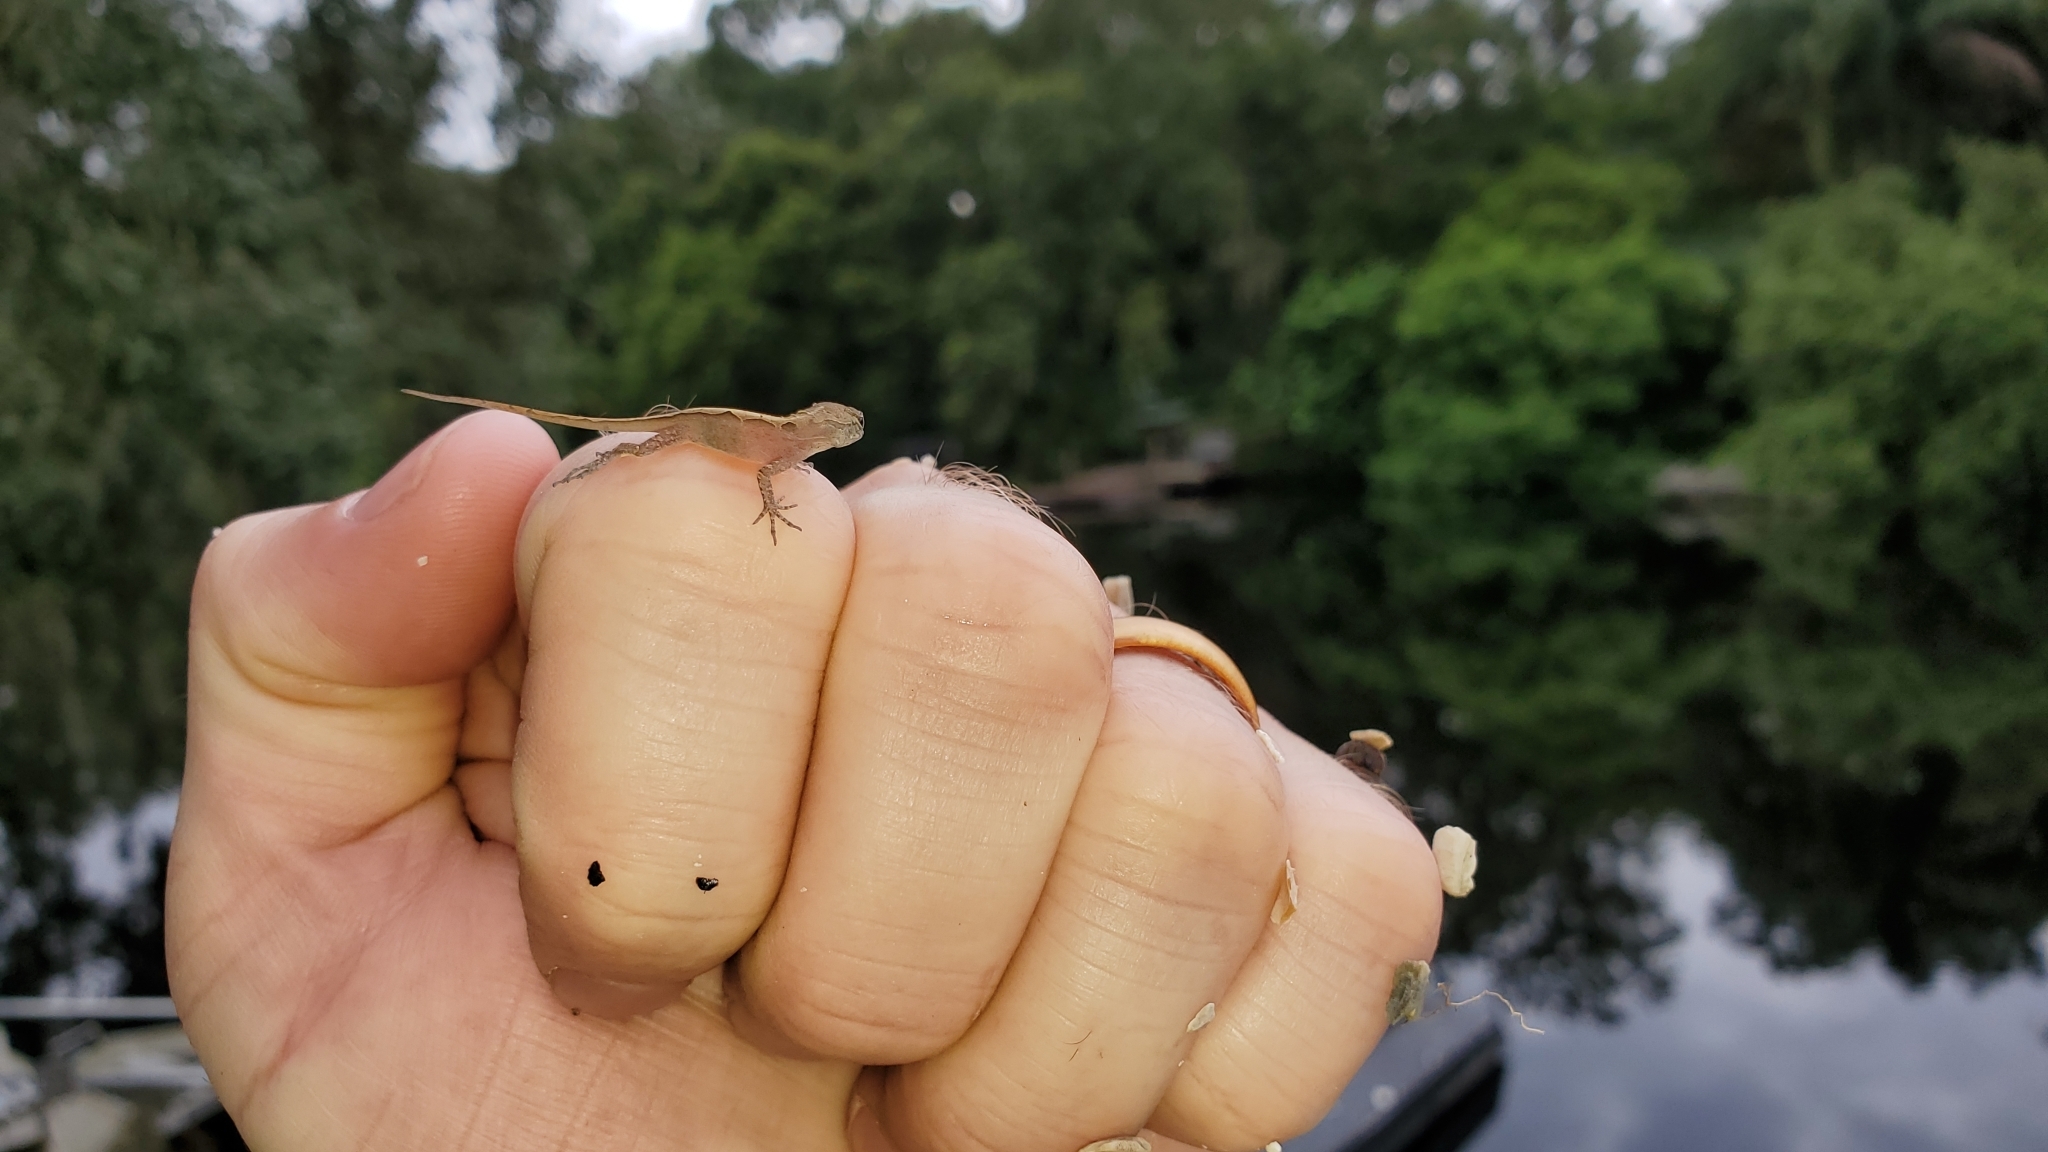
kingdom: Animalia
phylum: Chordata
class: Squamata
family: Dactyloidae
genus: Anolis
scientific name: Anolis sagrei
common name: Brown anole
